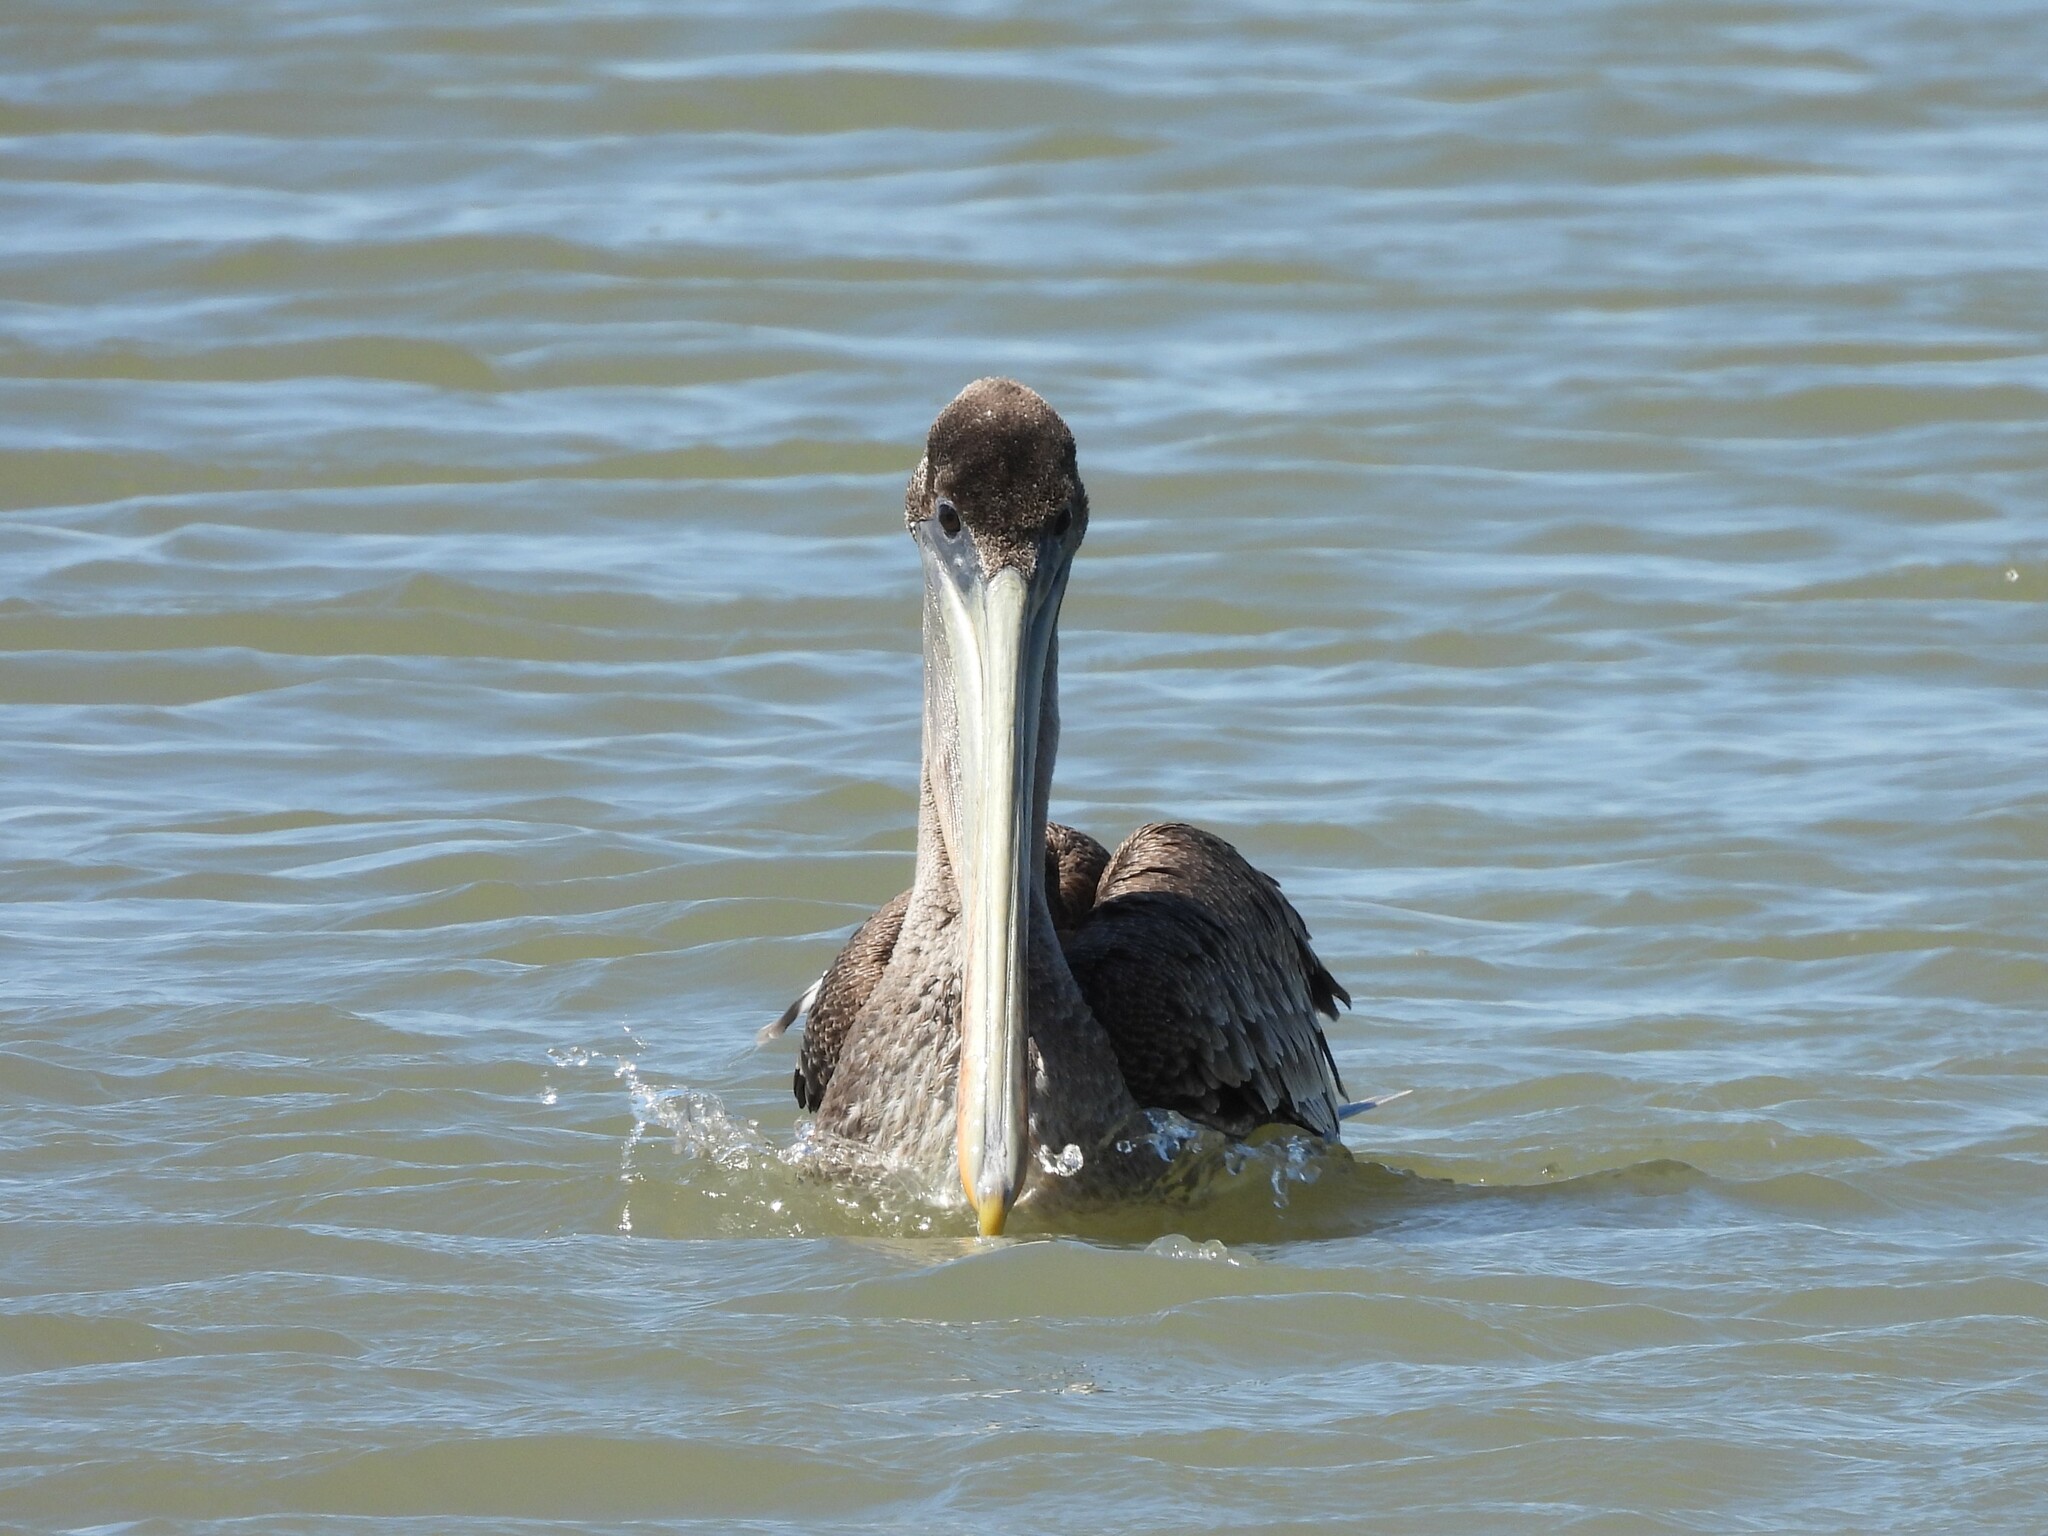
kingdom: Animalia
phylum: Chordata
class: Aves
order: Pelecaniformes
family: Pelecanidae
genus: Pelecanus
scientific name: Pelecanus occidentalis
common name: Brown pelican
